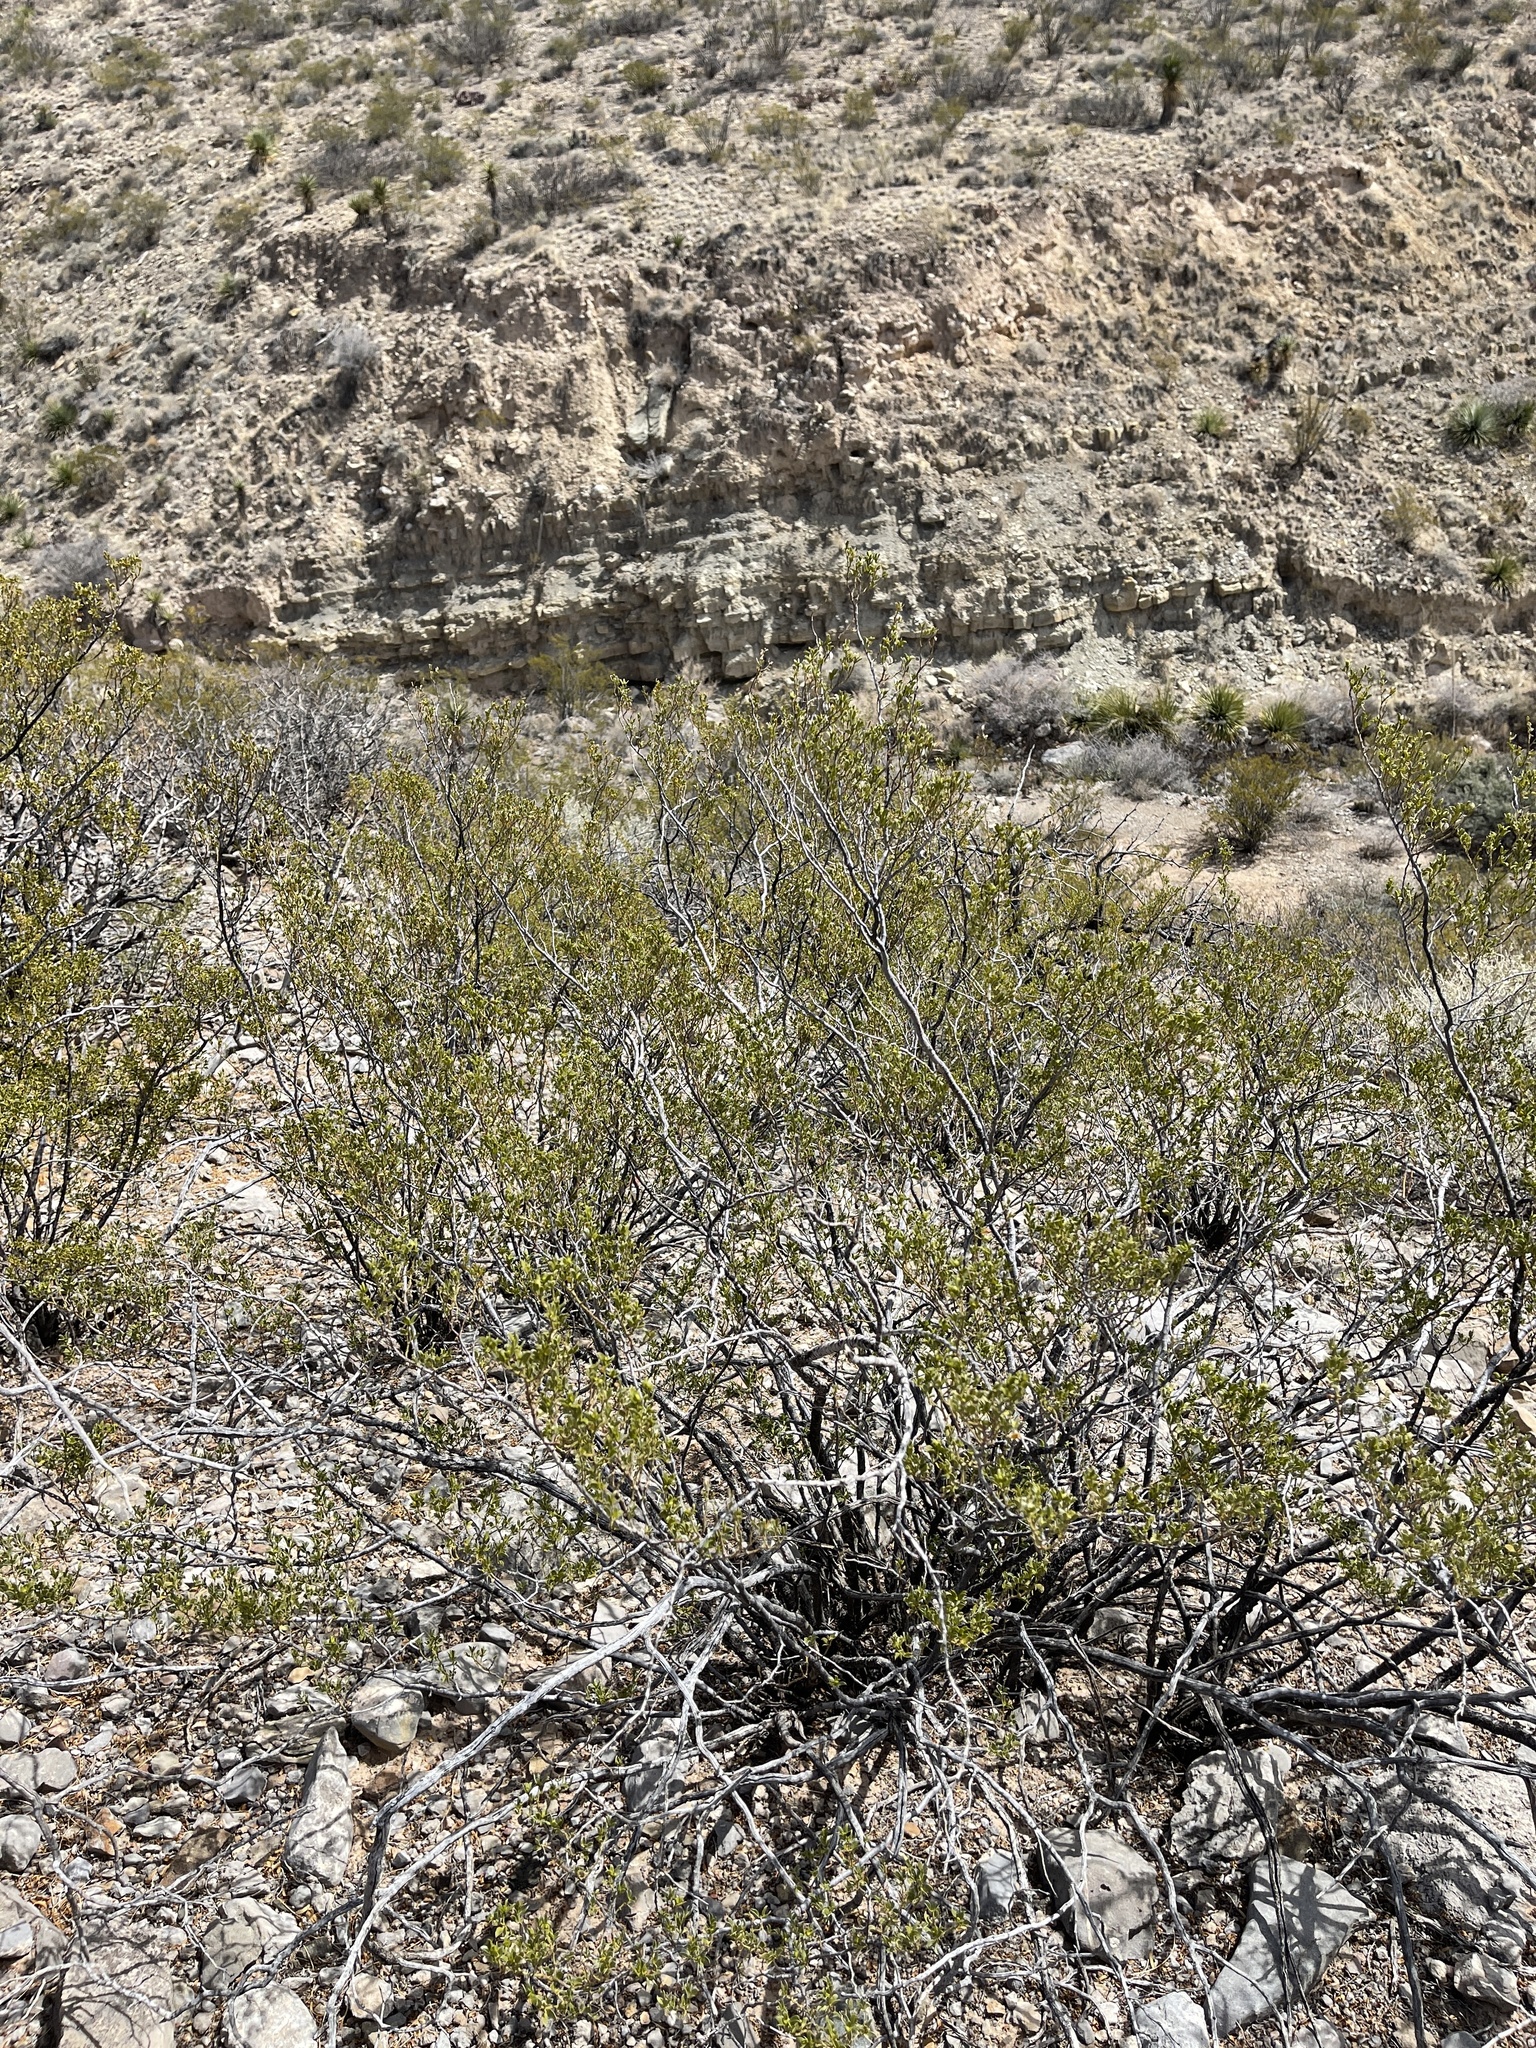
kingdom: Plantae
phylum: Tracheophyta
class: Magnoliopsida
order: Zygophyllales
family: Zygophyllaceae
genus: Larrea
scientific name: Larrea tridentata
